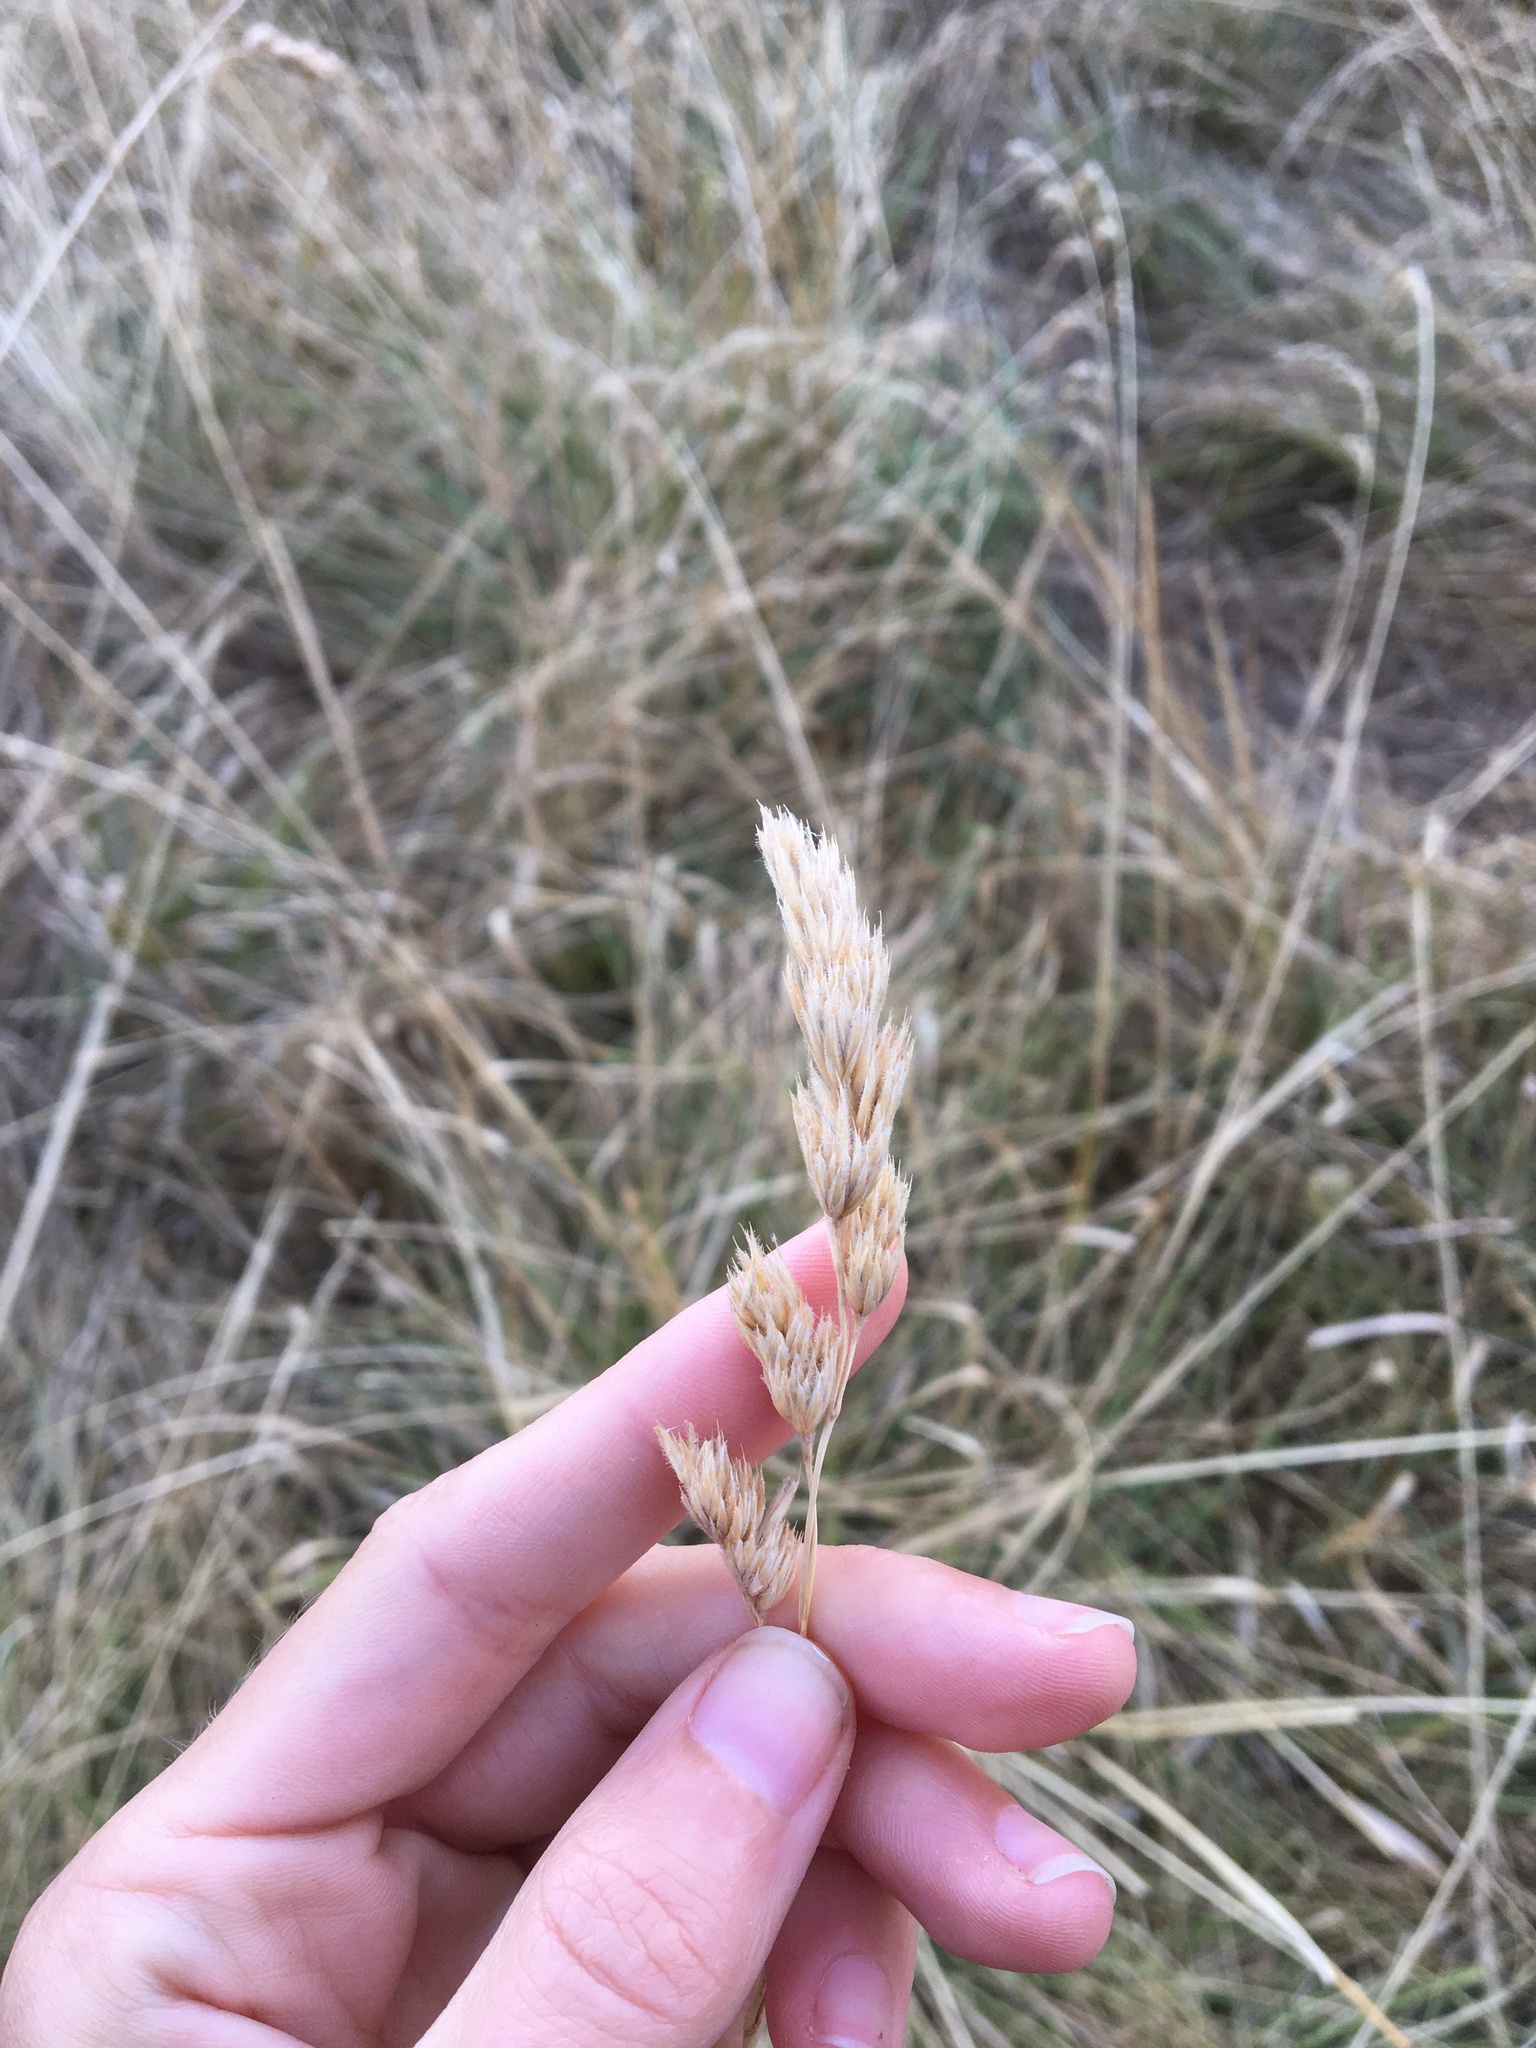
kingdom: Plantae
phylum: Tracheophyta
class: Liliopsida
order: Poales
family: Poaceae
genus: Dactylis
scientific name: Dactylis glomerata
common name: Orchardgrass
